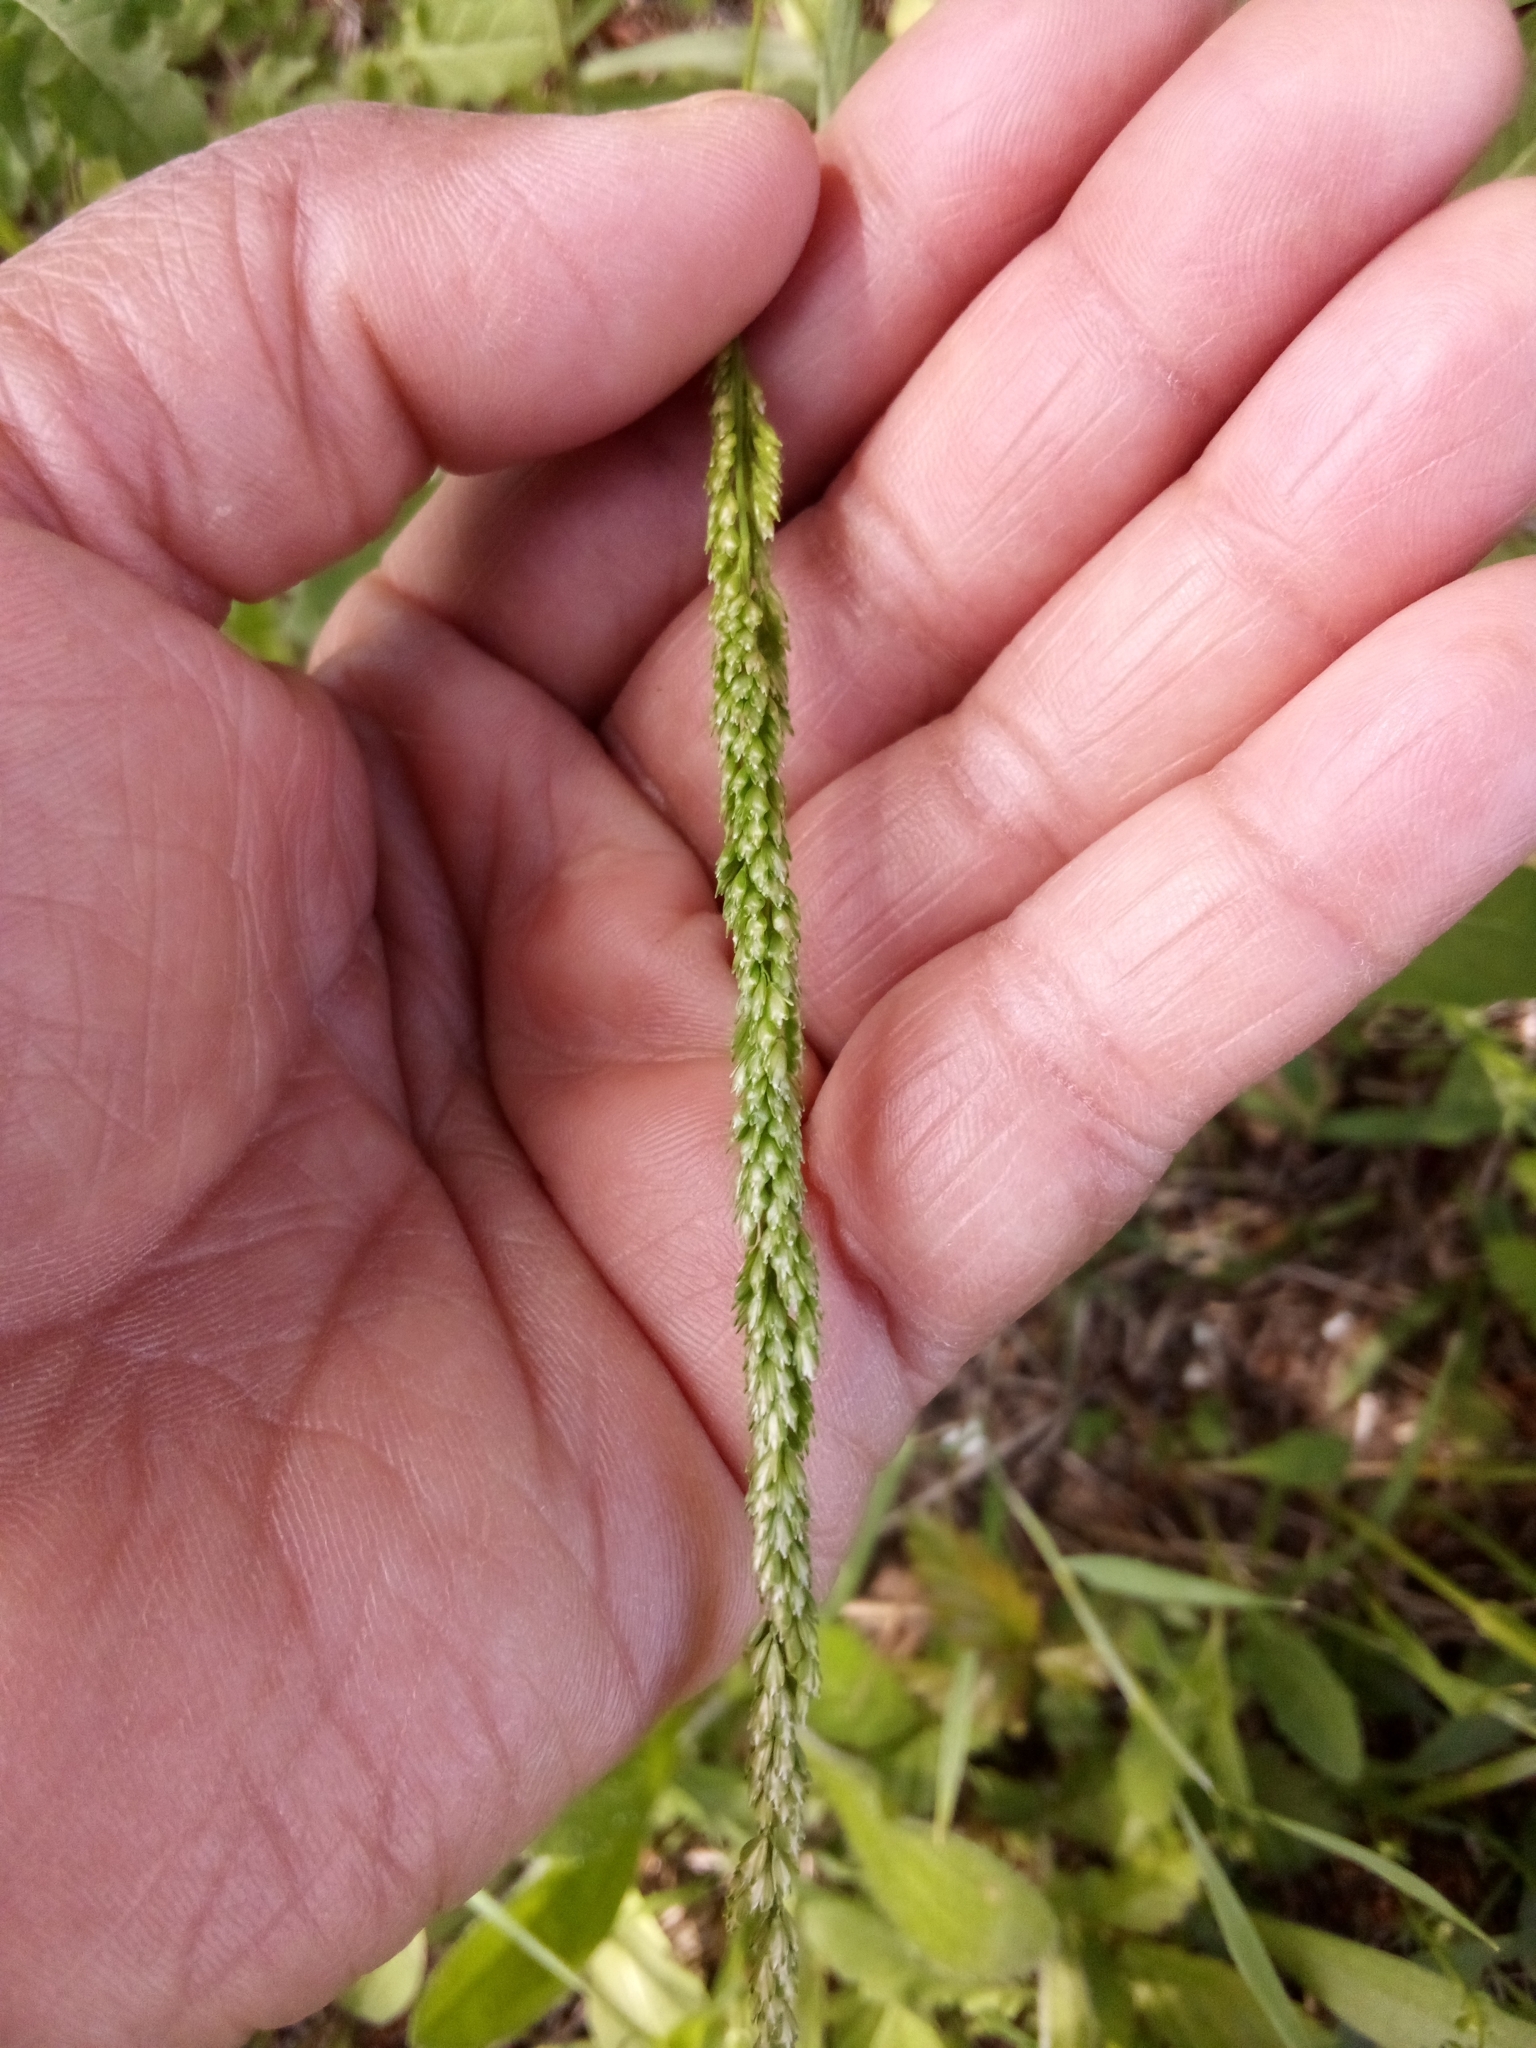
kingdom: Plantae
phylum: Tracheophyta
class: Liliopsida
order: Poales
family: Poaceae
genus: Sphenopholis
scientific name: Sphenopholis obtusata
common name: Prairie grass
